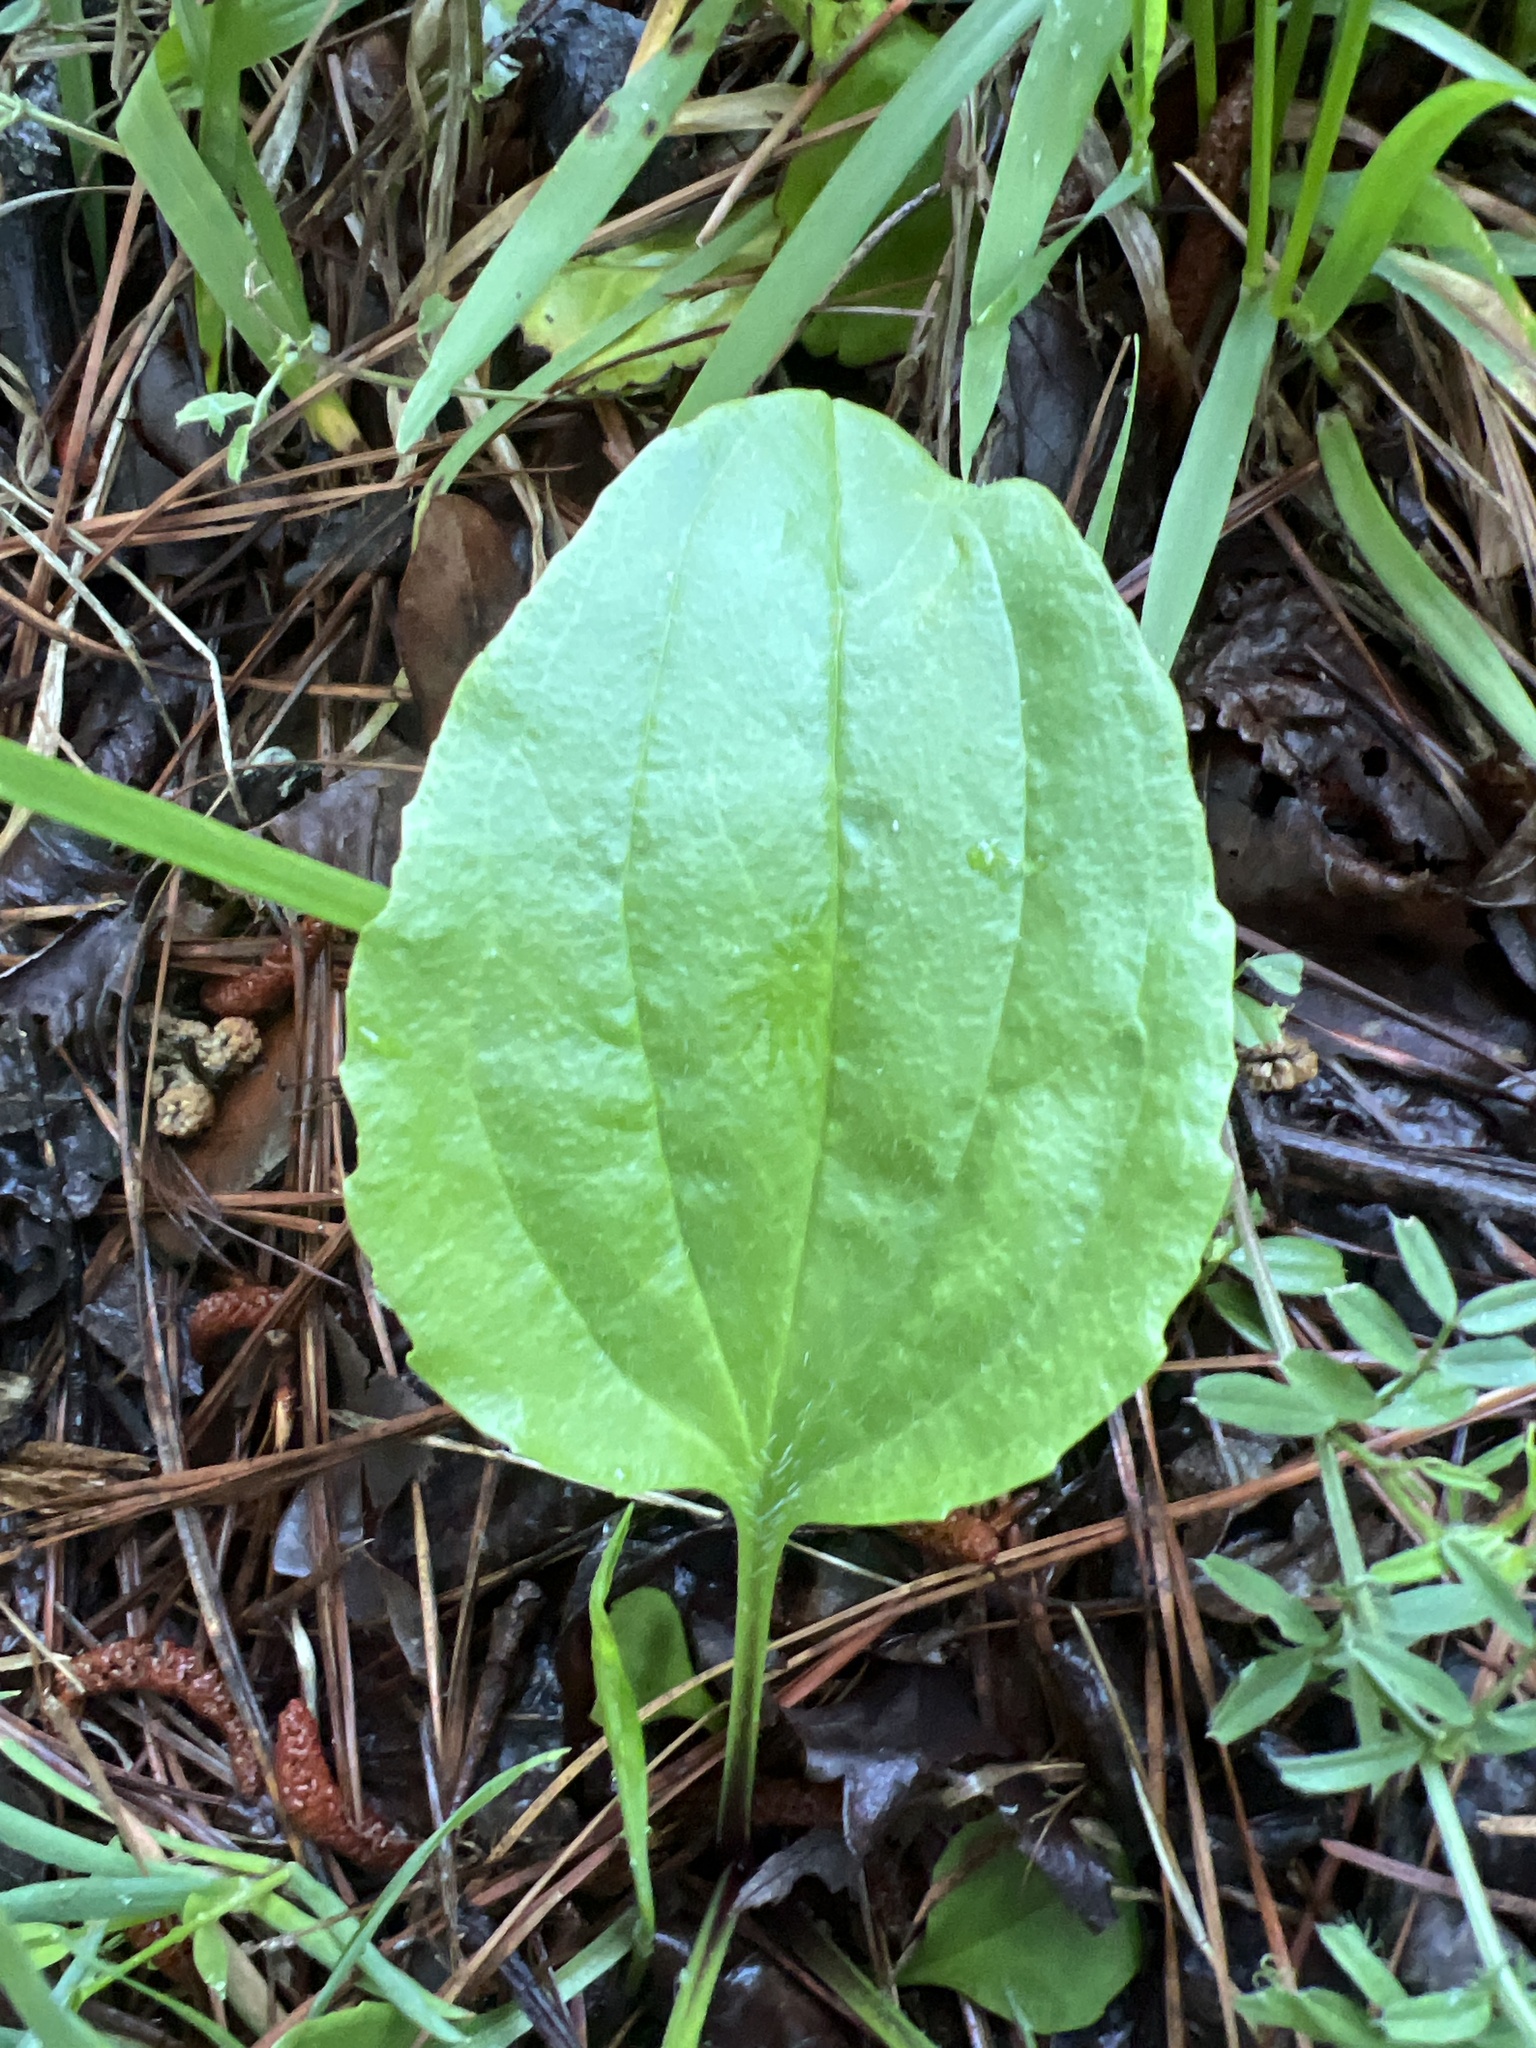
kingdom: Plantae
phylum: Tracheophyta
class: Magnoliopsida
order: Lamiales
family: Plantaginaceae
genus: Plantago
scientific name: Plantago major
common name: Common plantain
